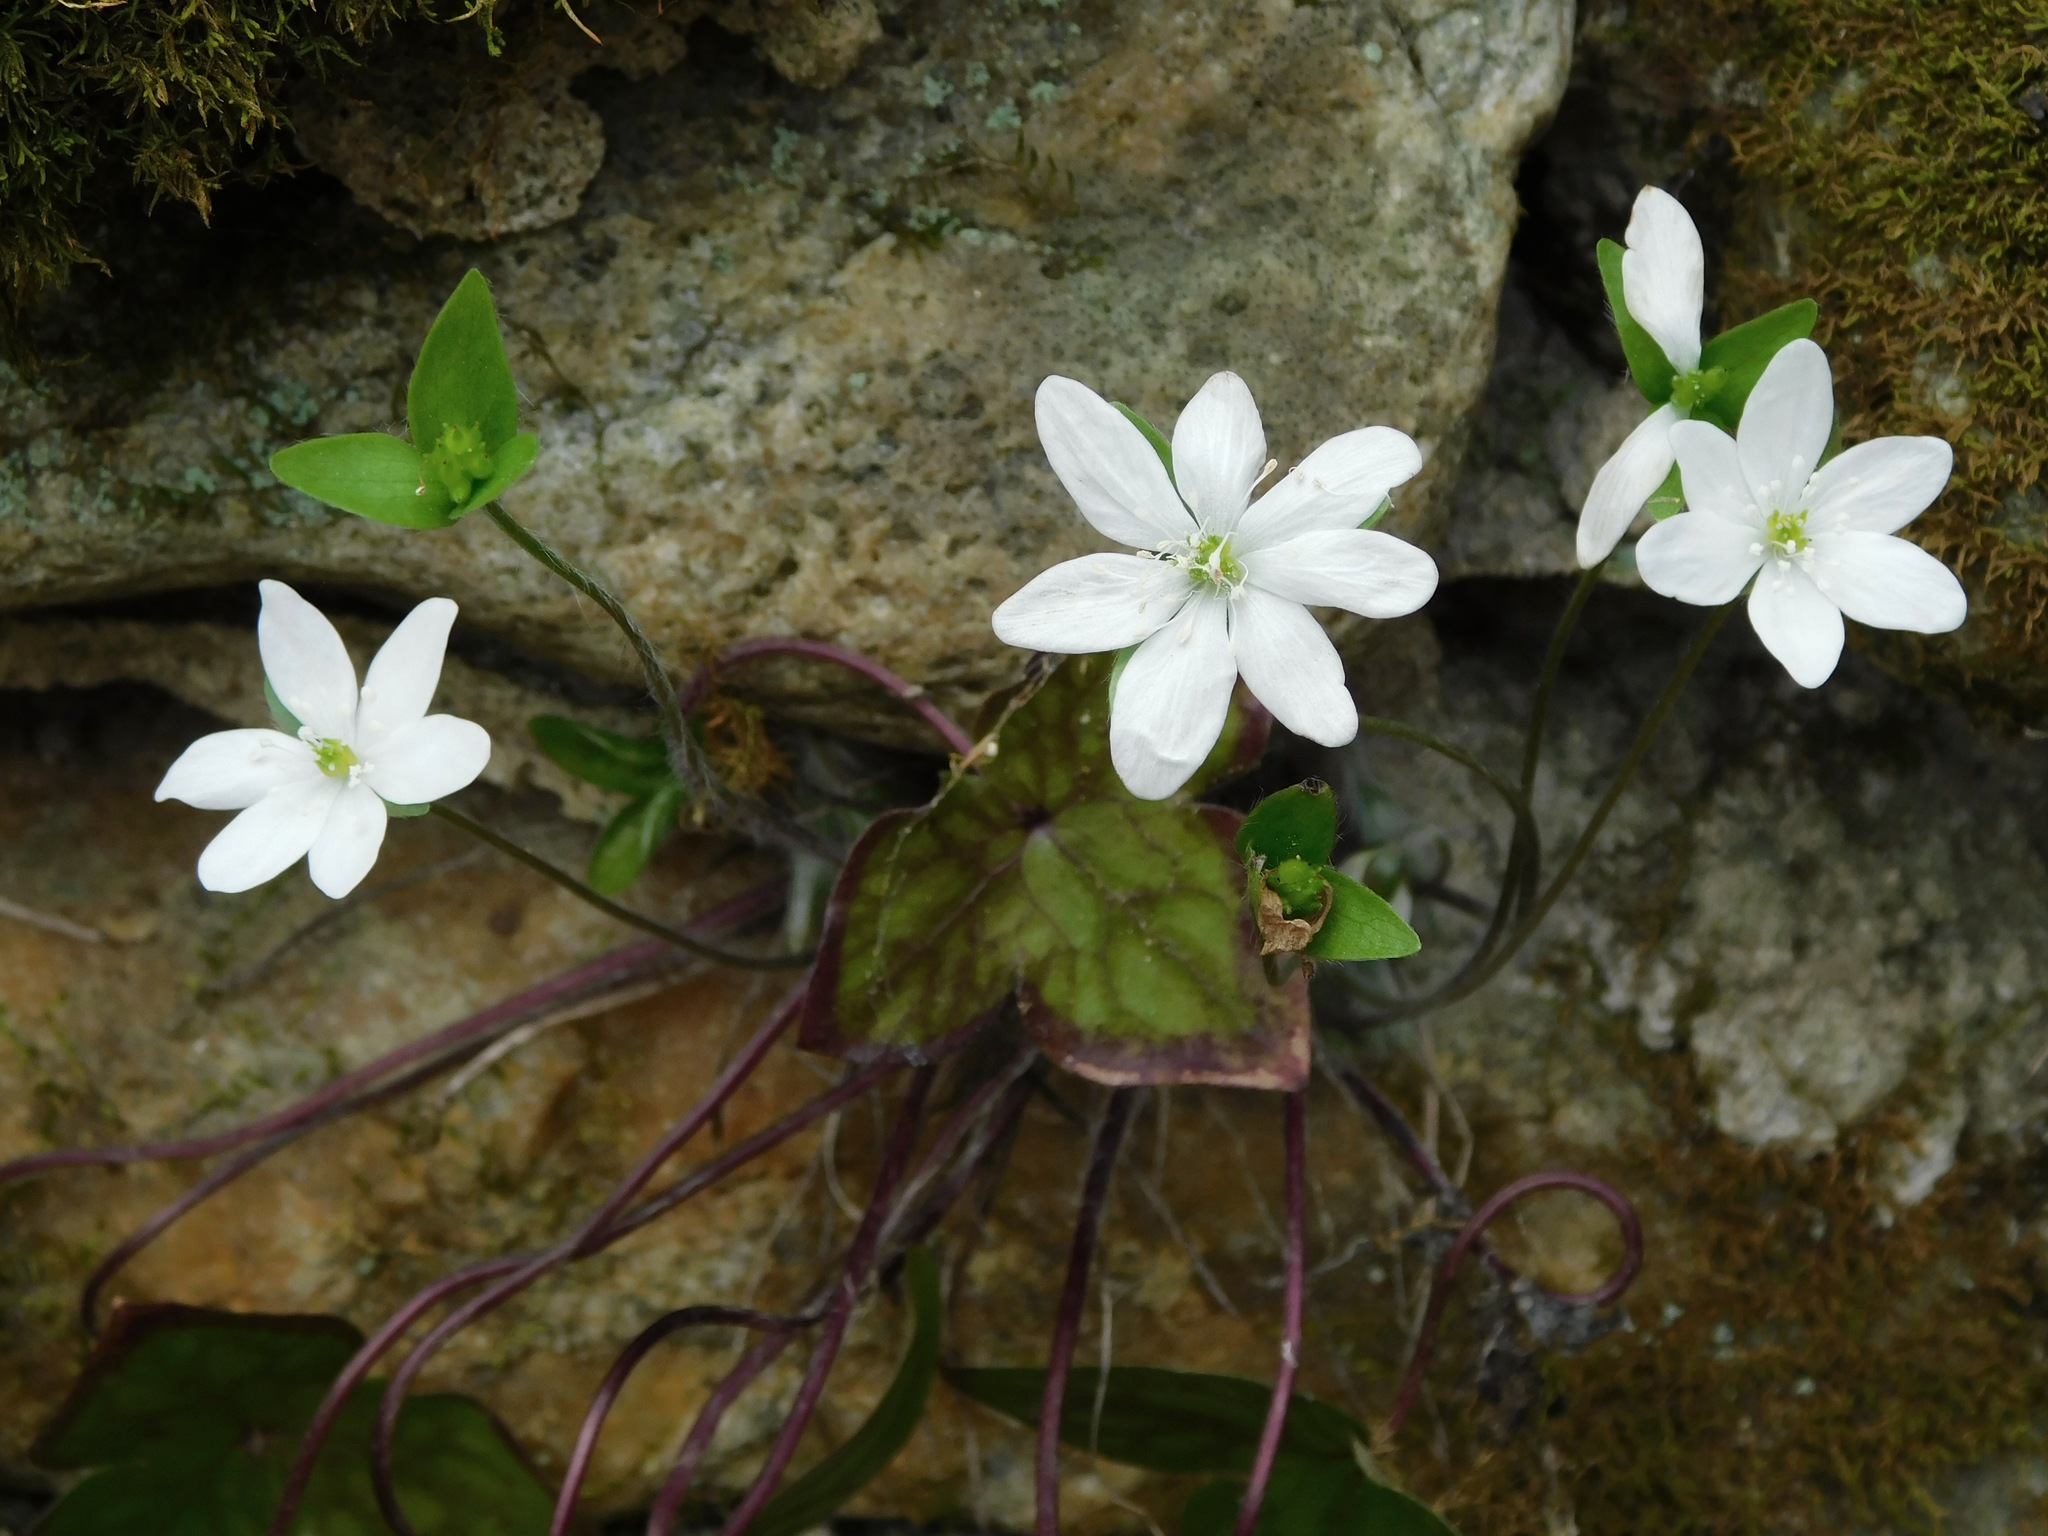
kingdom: Plantae
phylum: Tracheophyta
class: Magnoliopsida
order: Ranunculales
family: Ranunculaceae
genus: Hepatica
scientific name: Hepatica acutiloba
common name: Sharp-lobed hepatica
